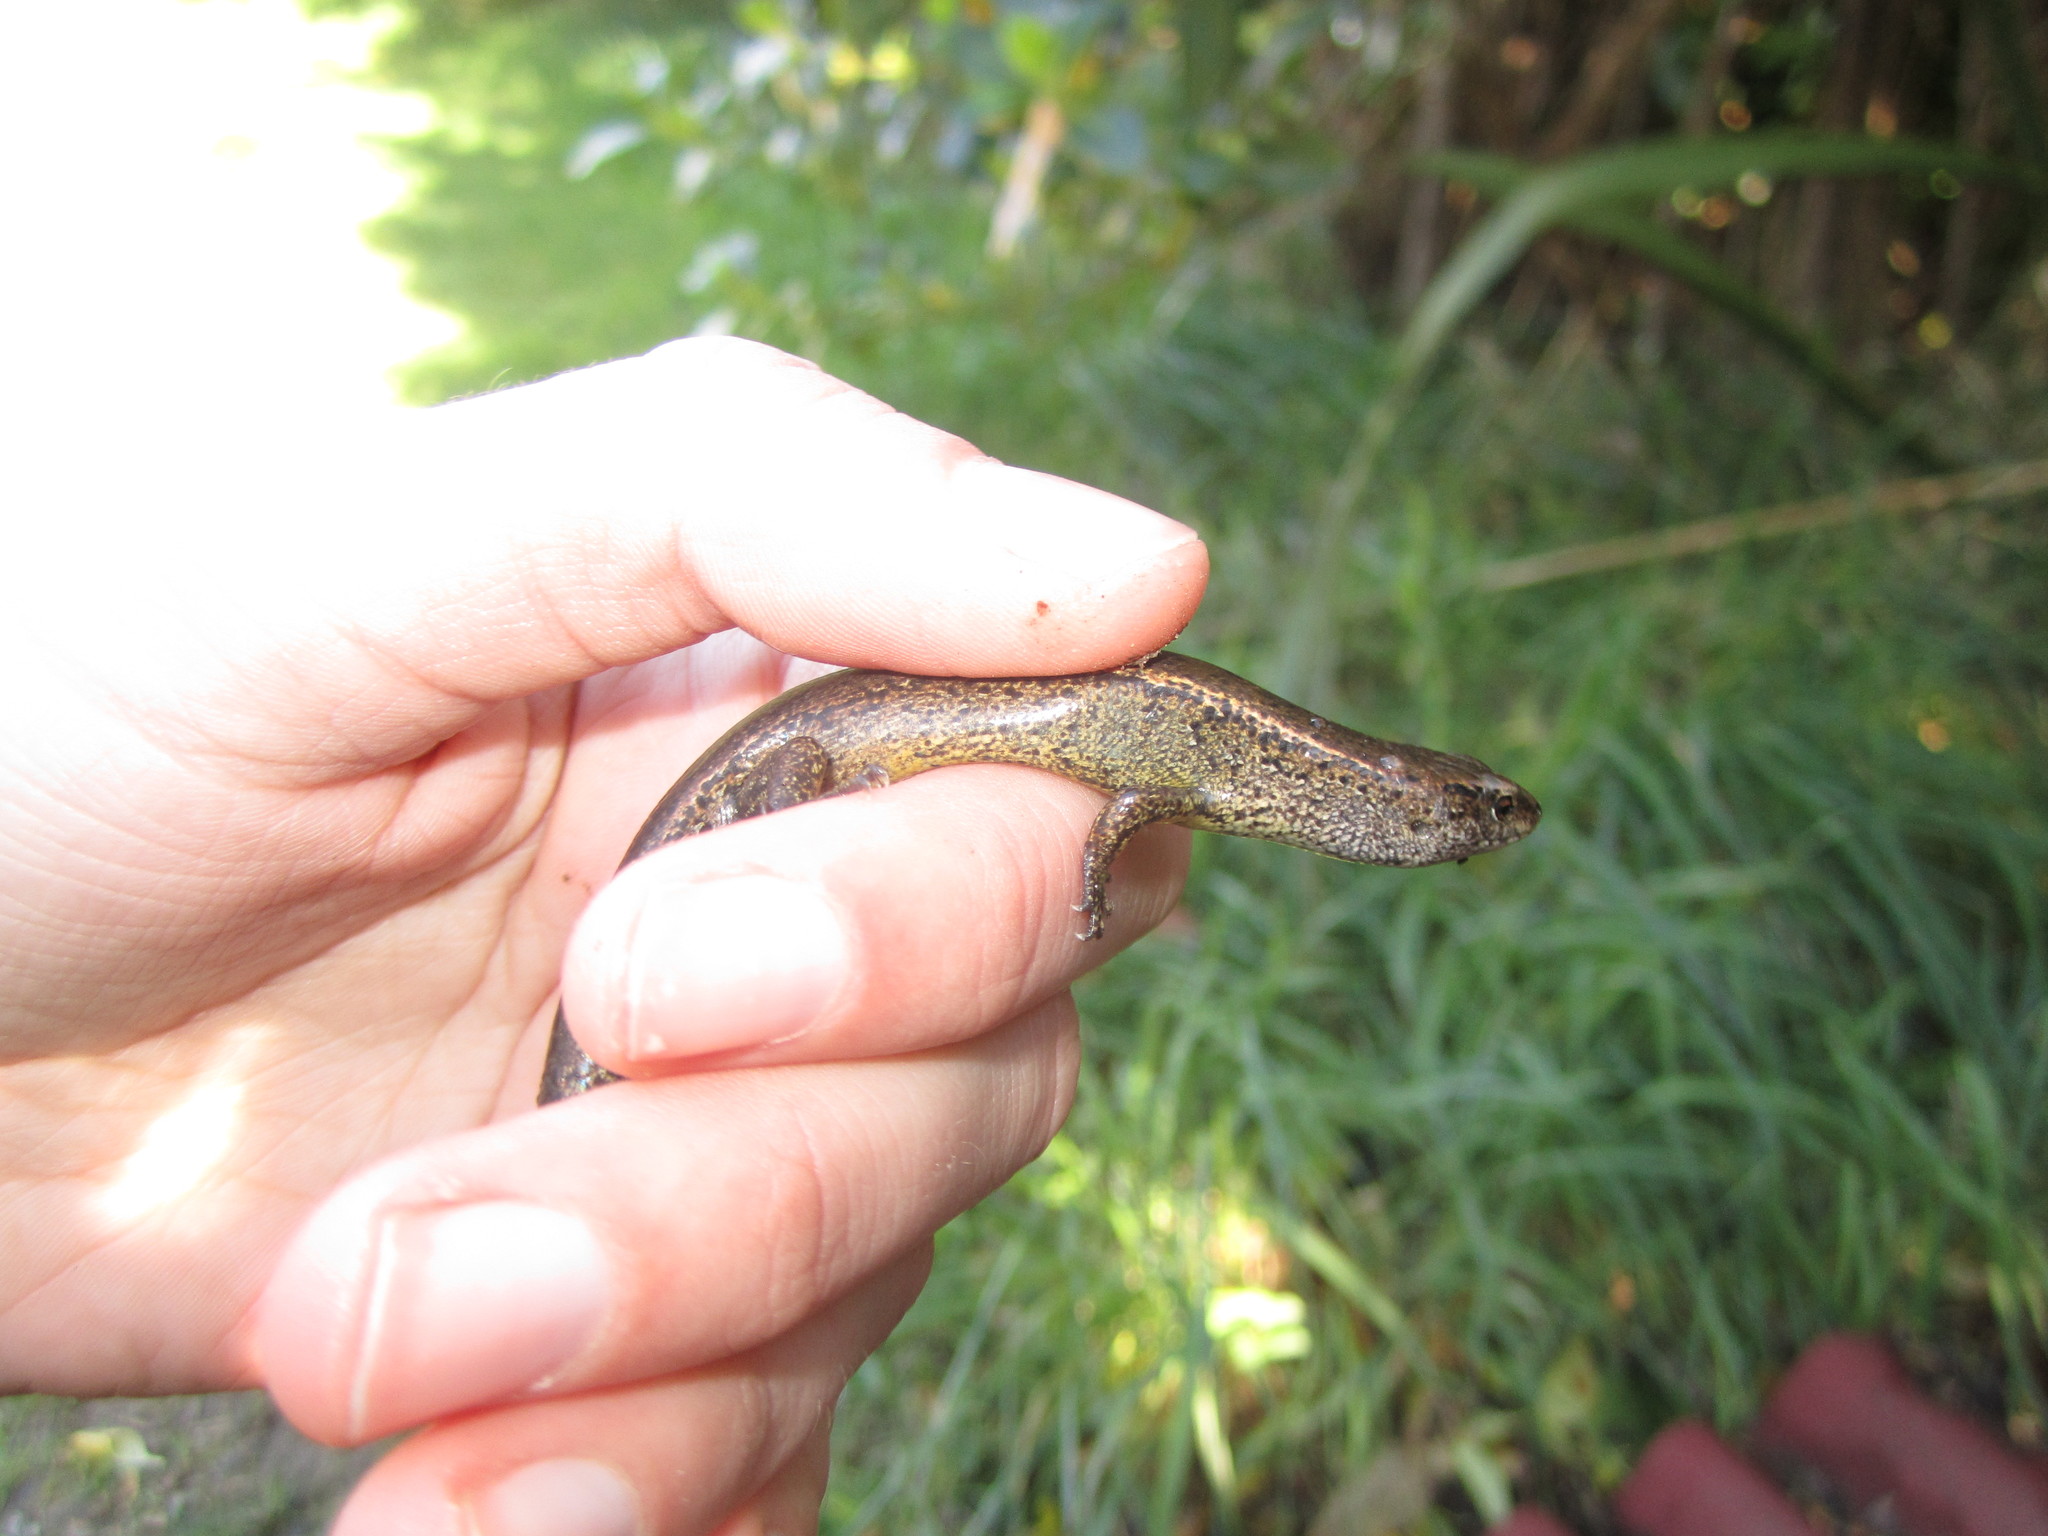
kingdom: Animalia
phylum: Chordata
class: Squamata
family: Scincidae
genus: Oligosoma
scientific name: Oligosoma aeneum
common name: Copper skink
